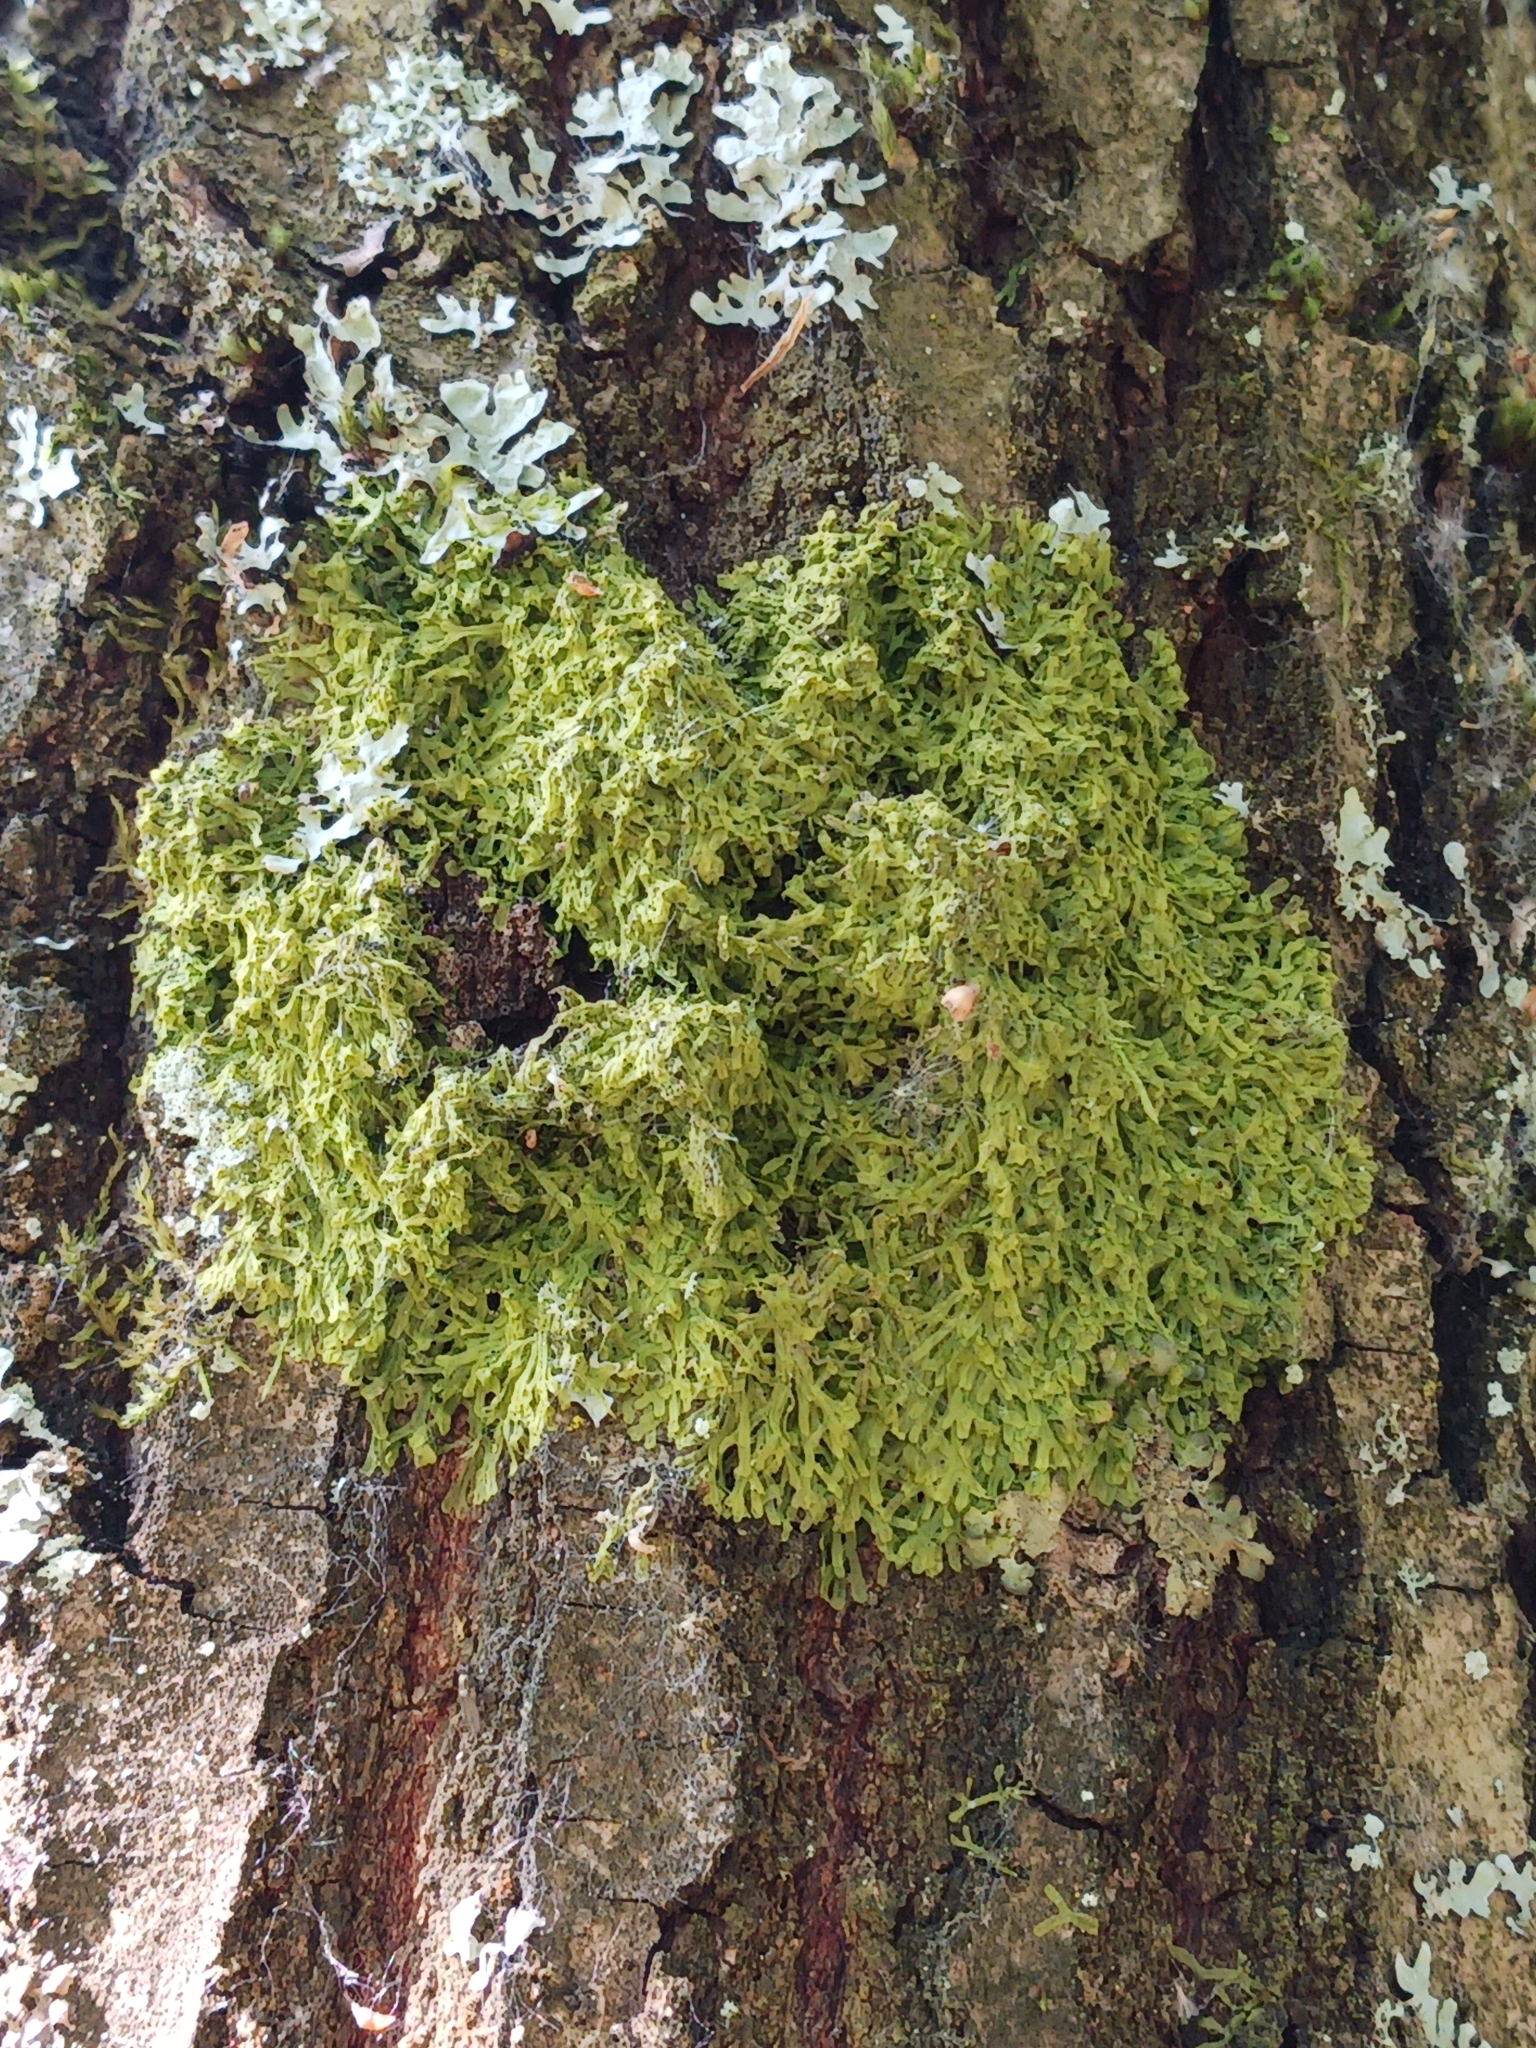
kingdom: Plantae
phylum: Marchantiophyta
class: Jungermanniopsida
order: Metzgeriales
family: Metzgeriaceae
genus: Metzgeria
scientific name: Metzgeria furcata
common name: Forked veilwort
